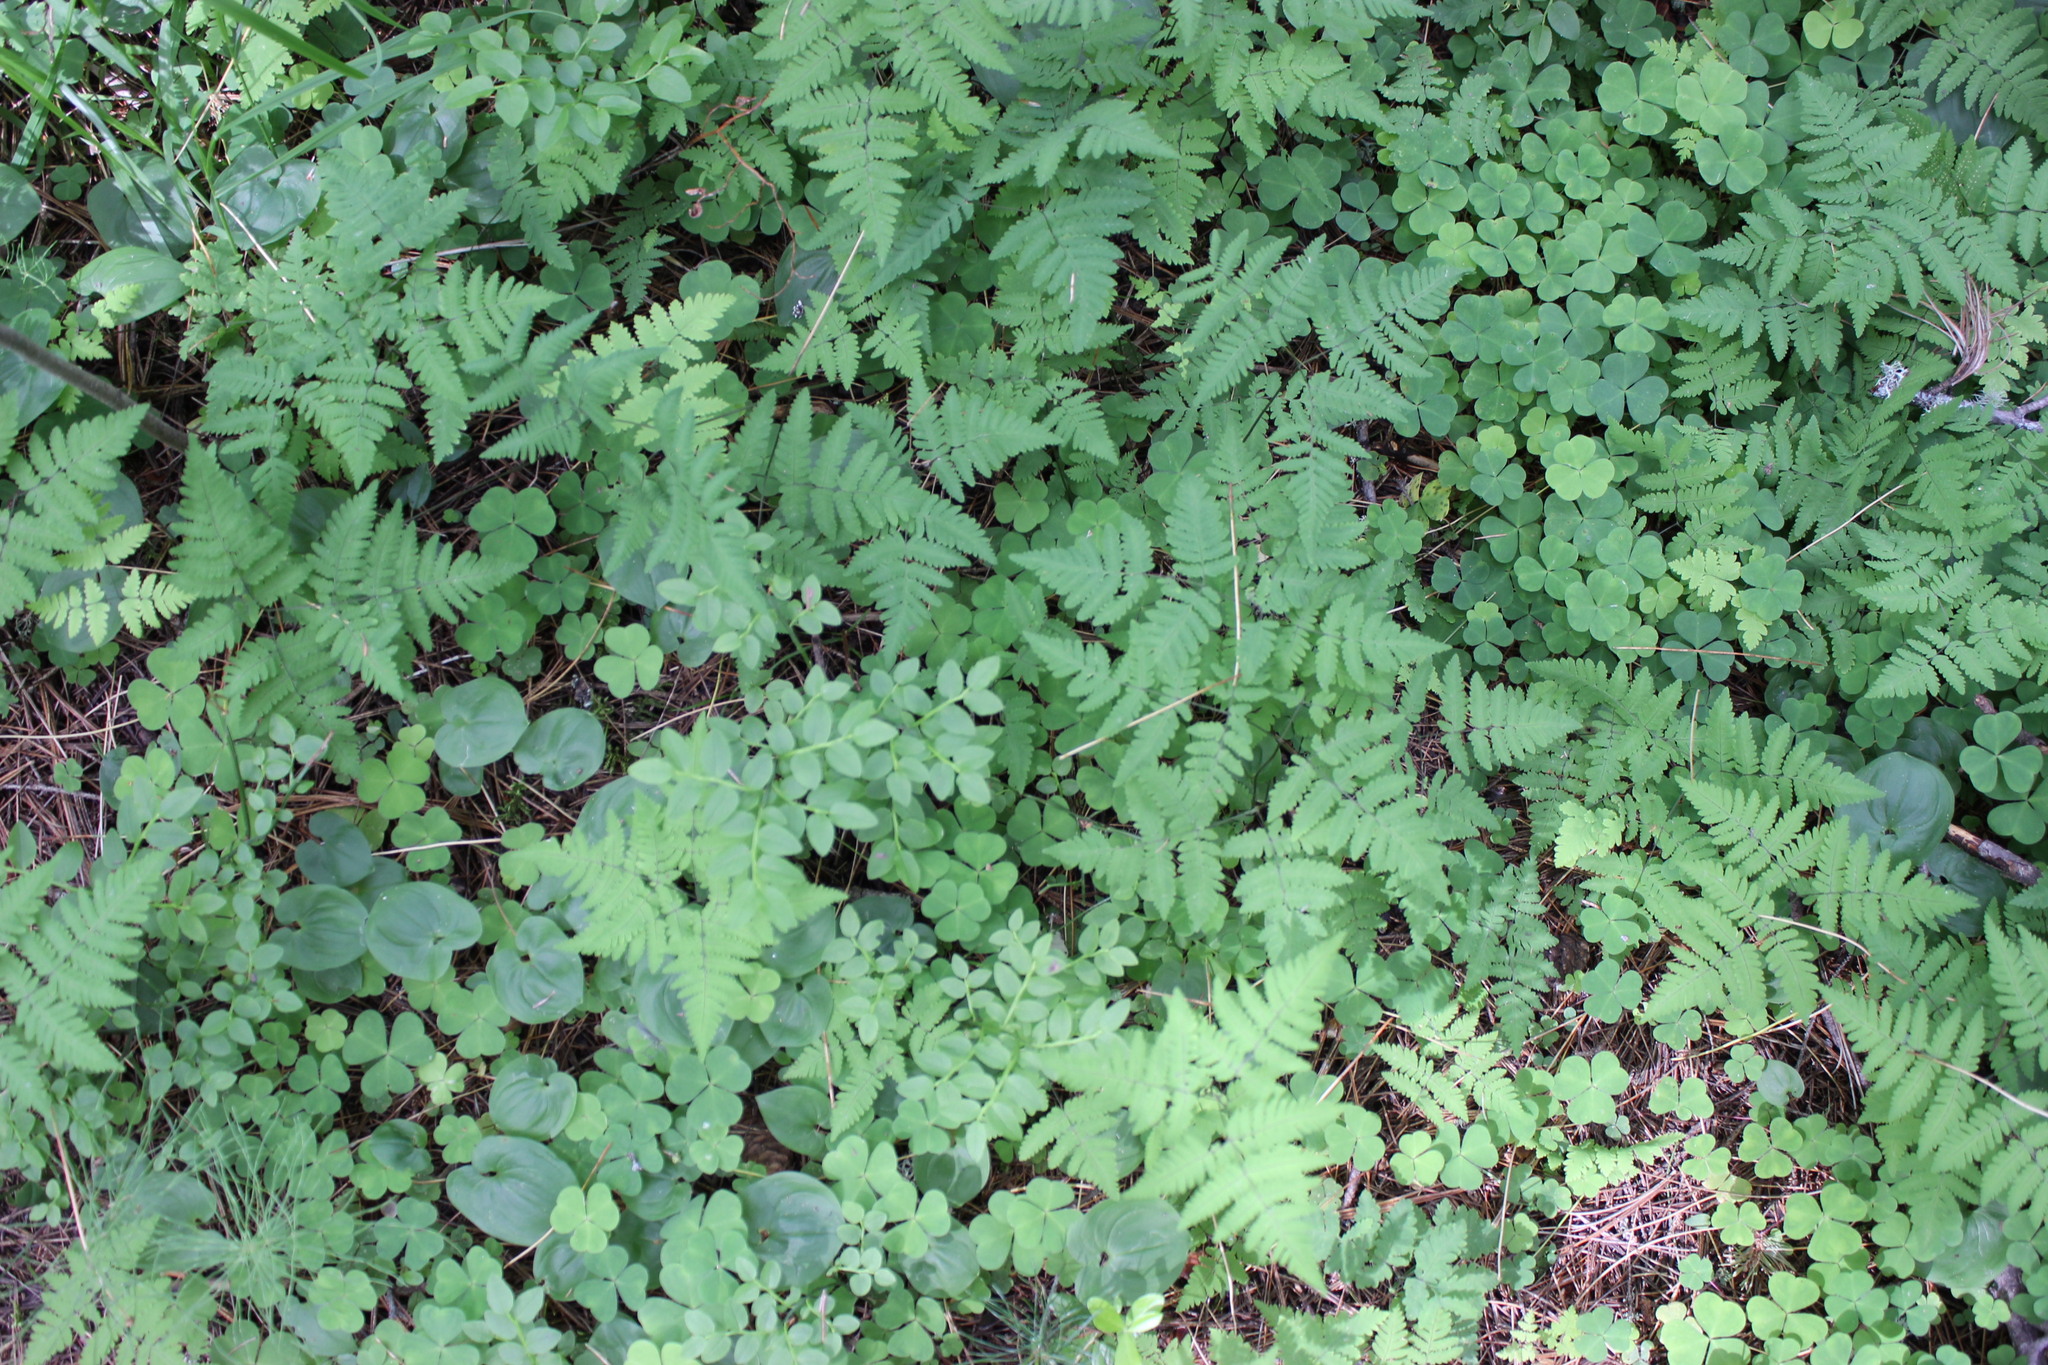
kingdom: Plantae
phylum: Tracheophyta
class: Polypodiopsida
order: Polypodiales
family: Cystopteridaceae
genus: Gymnocarpium
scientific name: Gymnocarpium dryopteris
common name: Oak fern
